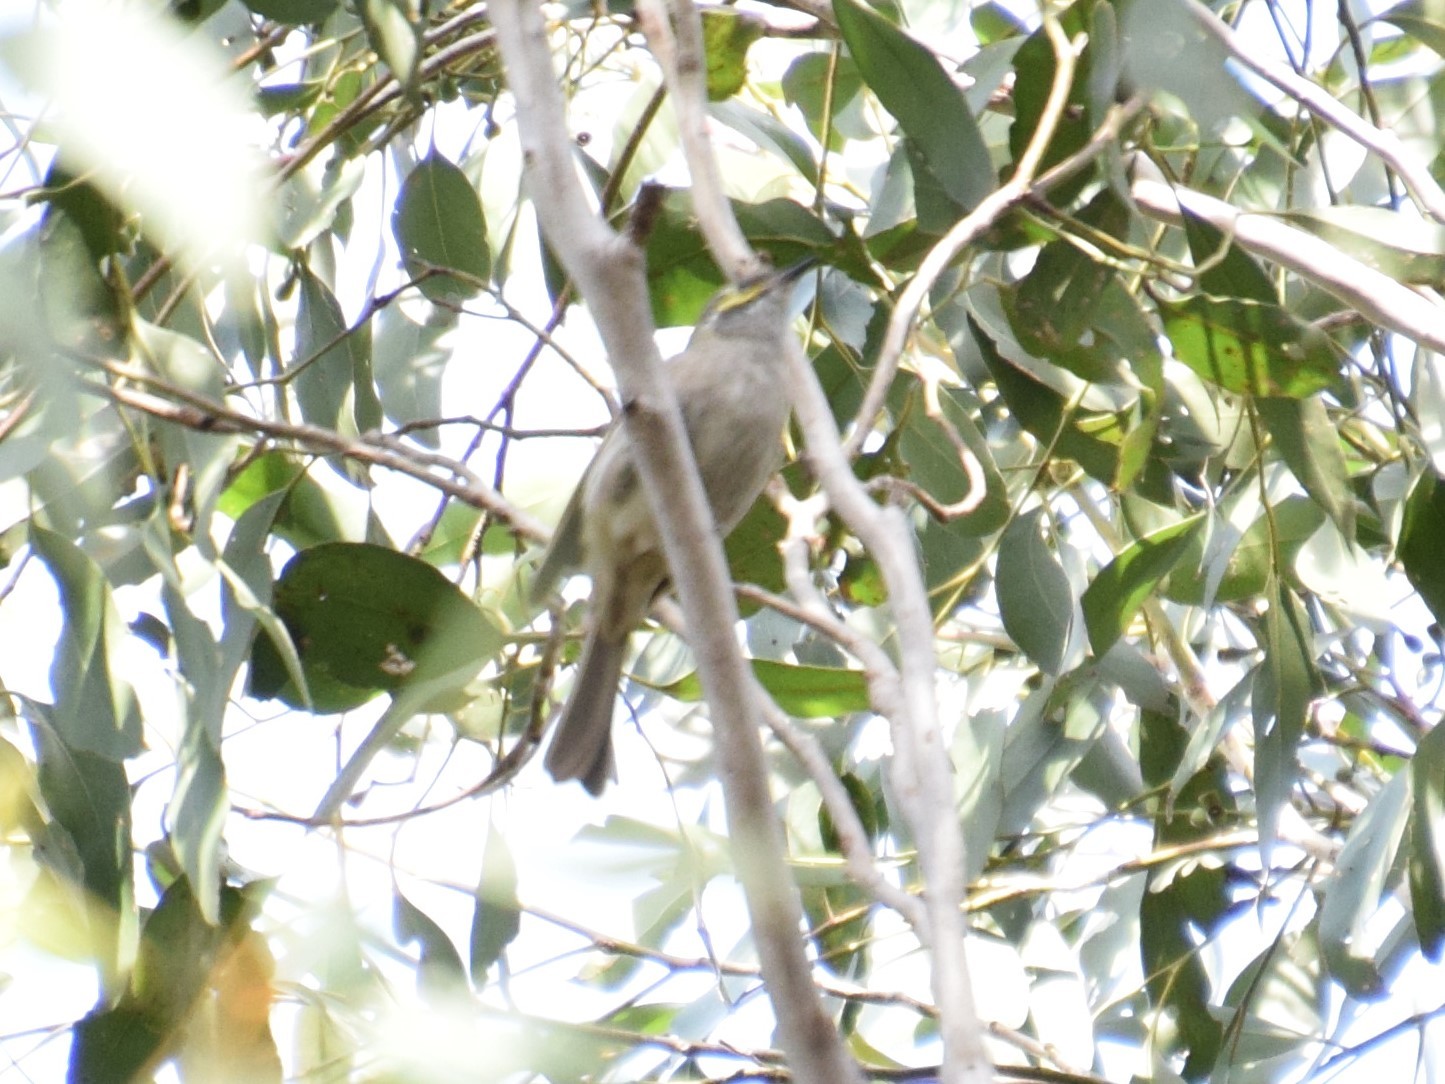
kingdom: Animalia
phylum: Chordata
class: Aves
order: Passeriformes
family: Meliphagidae
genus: Caligavis
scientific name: Caligavis chrysops
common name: Yellow-faced honeyeater
